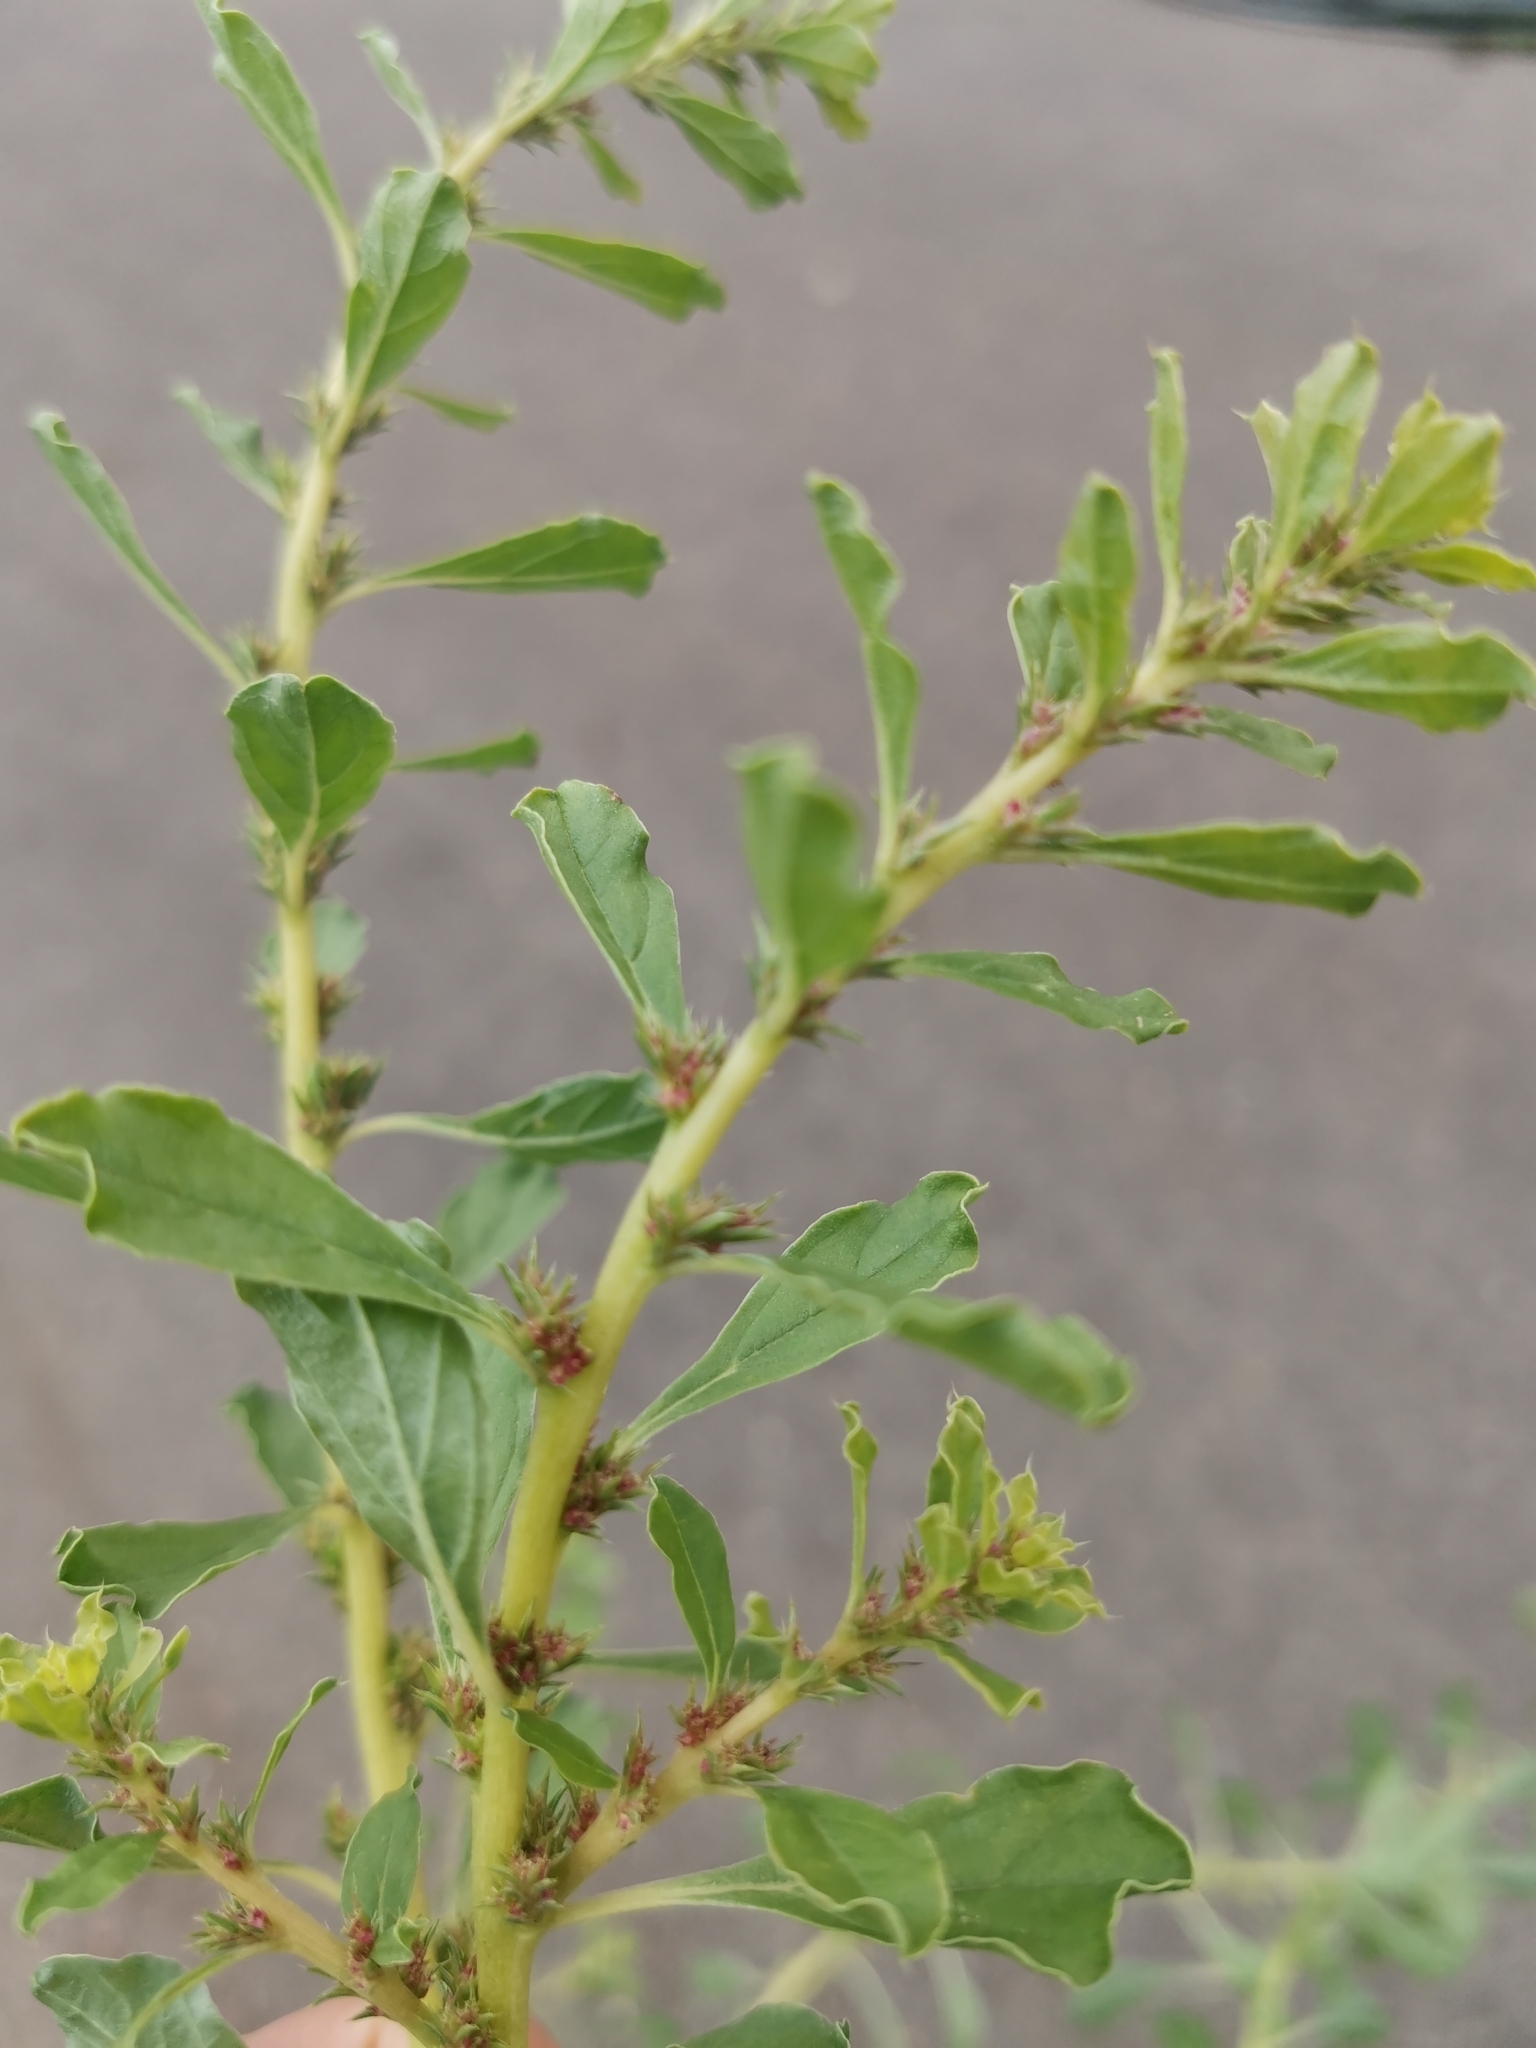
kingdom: Plantae
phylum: Tracheophyta
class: Magnoliopsida
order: Caryophyllales
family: Amaranthaceae
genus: Amaranthus
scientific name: Amaranthus albus
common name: White pigweed
